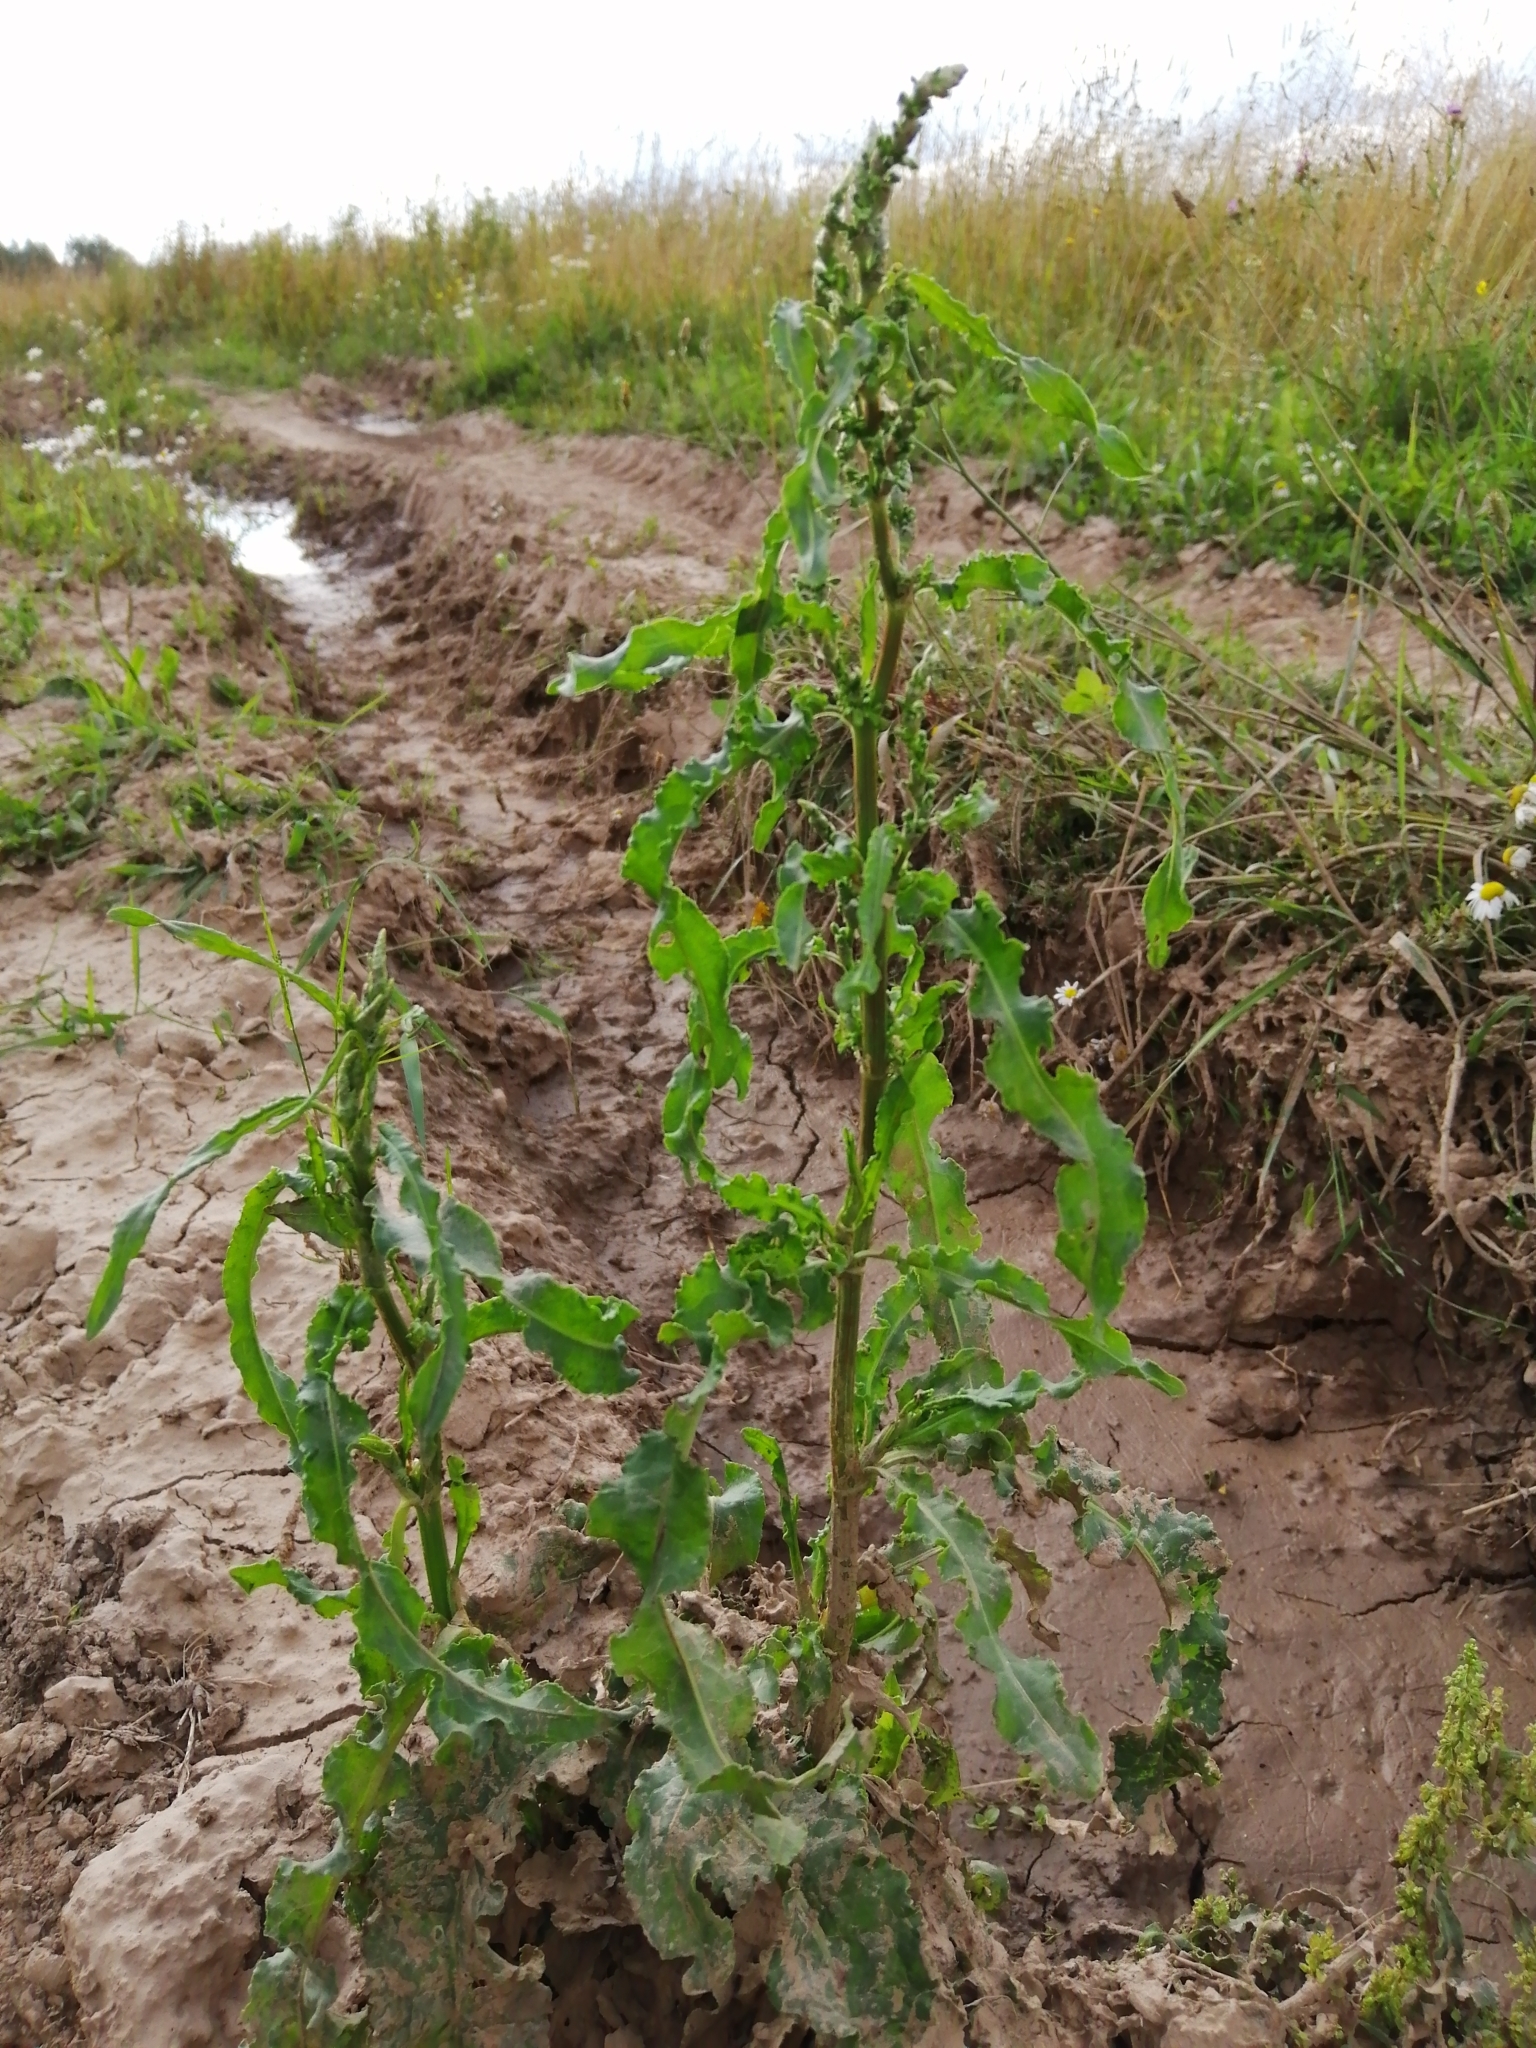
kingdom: Plantae
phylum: Tracheophyta
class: Magnoliopsida
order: Caryophyllales
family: Polygonaceae
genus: Rumex
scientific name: Rumex crispus
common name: Curled dock
